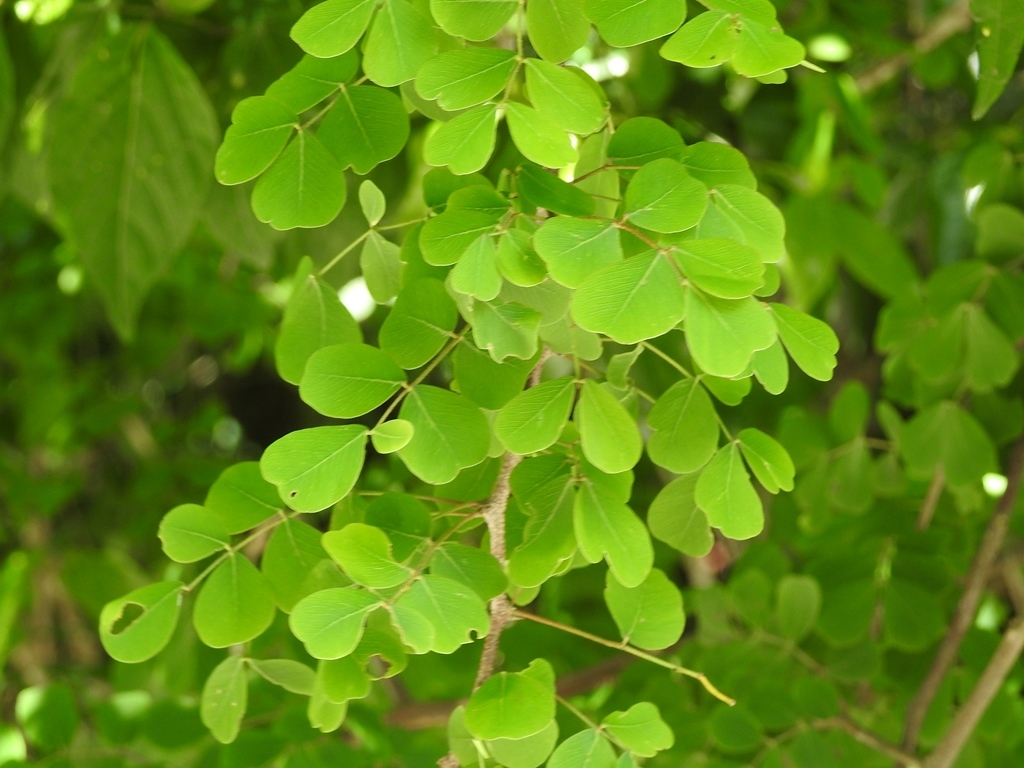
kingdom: Plantae
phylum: Tracheophyta
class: Magnoliopsida
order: Fabales
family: Fabaceae
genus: Haematoxylum
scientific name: Haematoxylum brasiletto
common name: Peachwood
